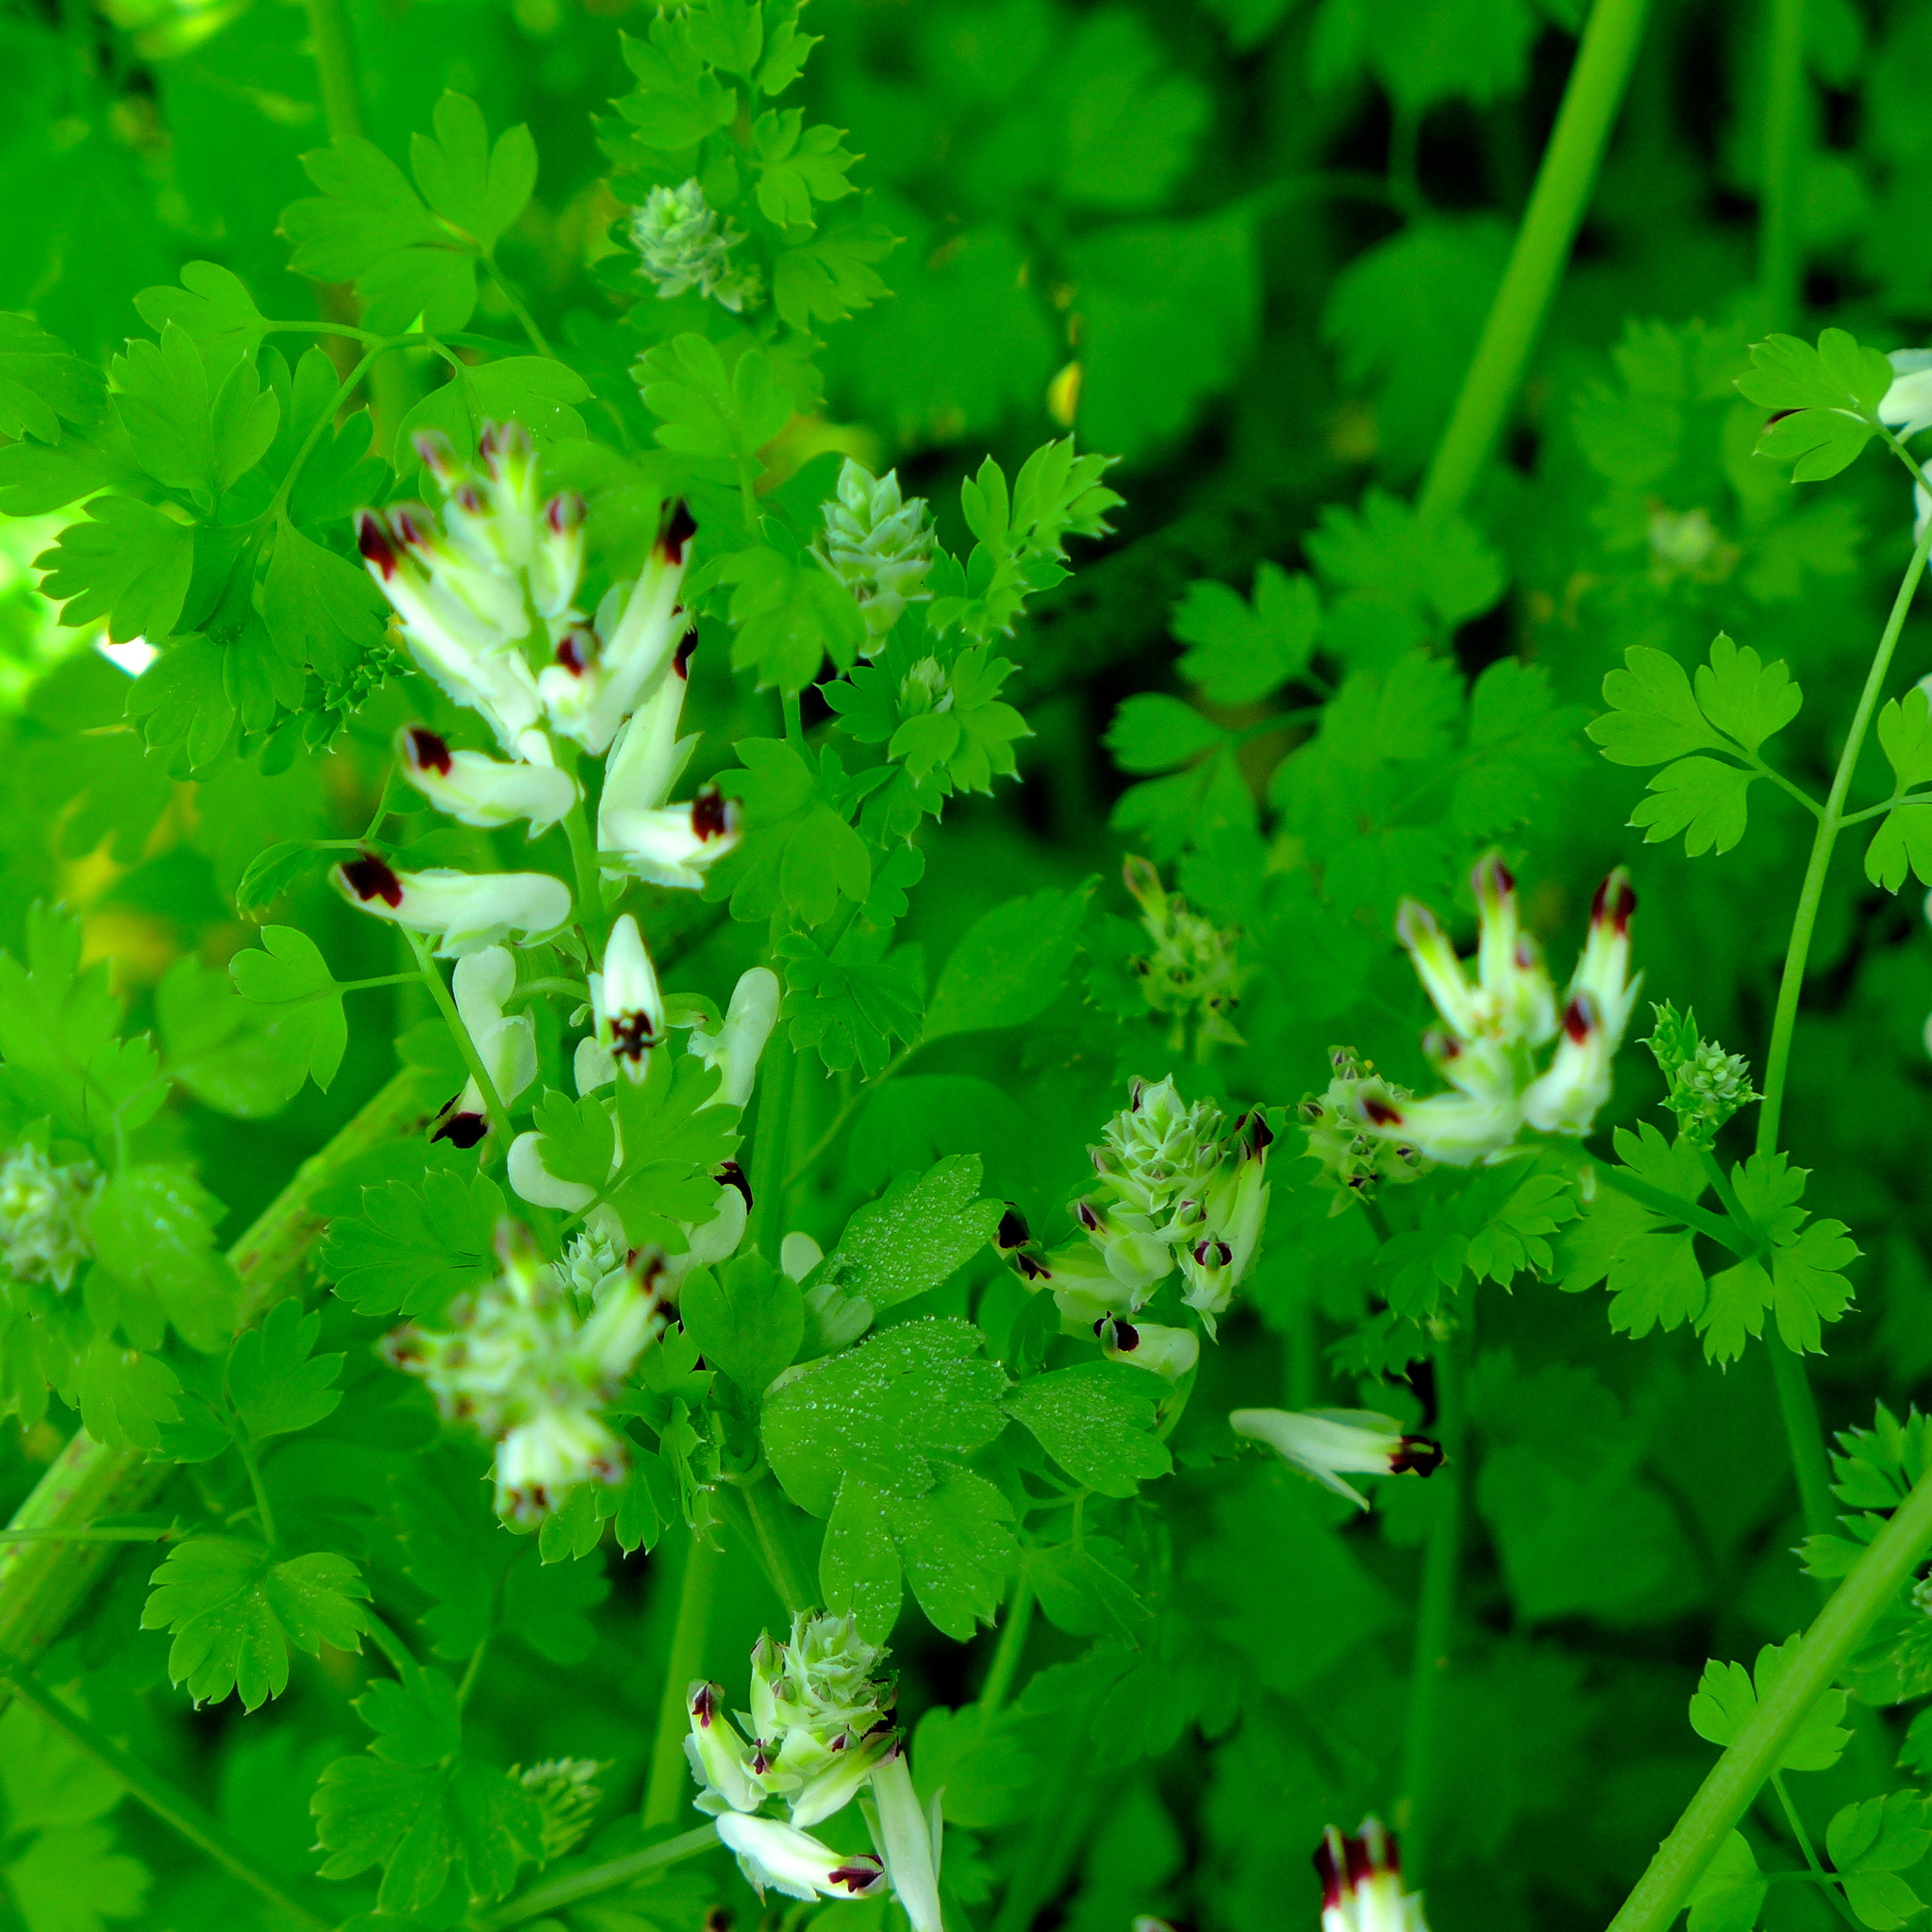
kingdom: Plantae
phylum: Tracheophyta
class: Magnoliopsida
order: Ranunculales
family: Papaveraceae
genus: Fumaria
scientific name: Fumaria capreolata
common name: White ramping-fumitory
